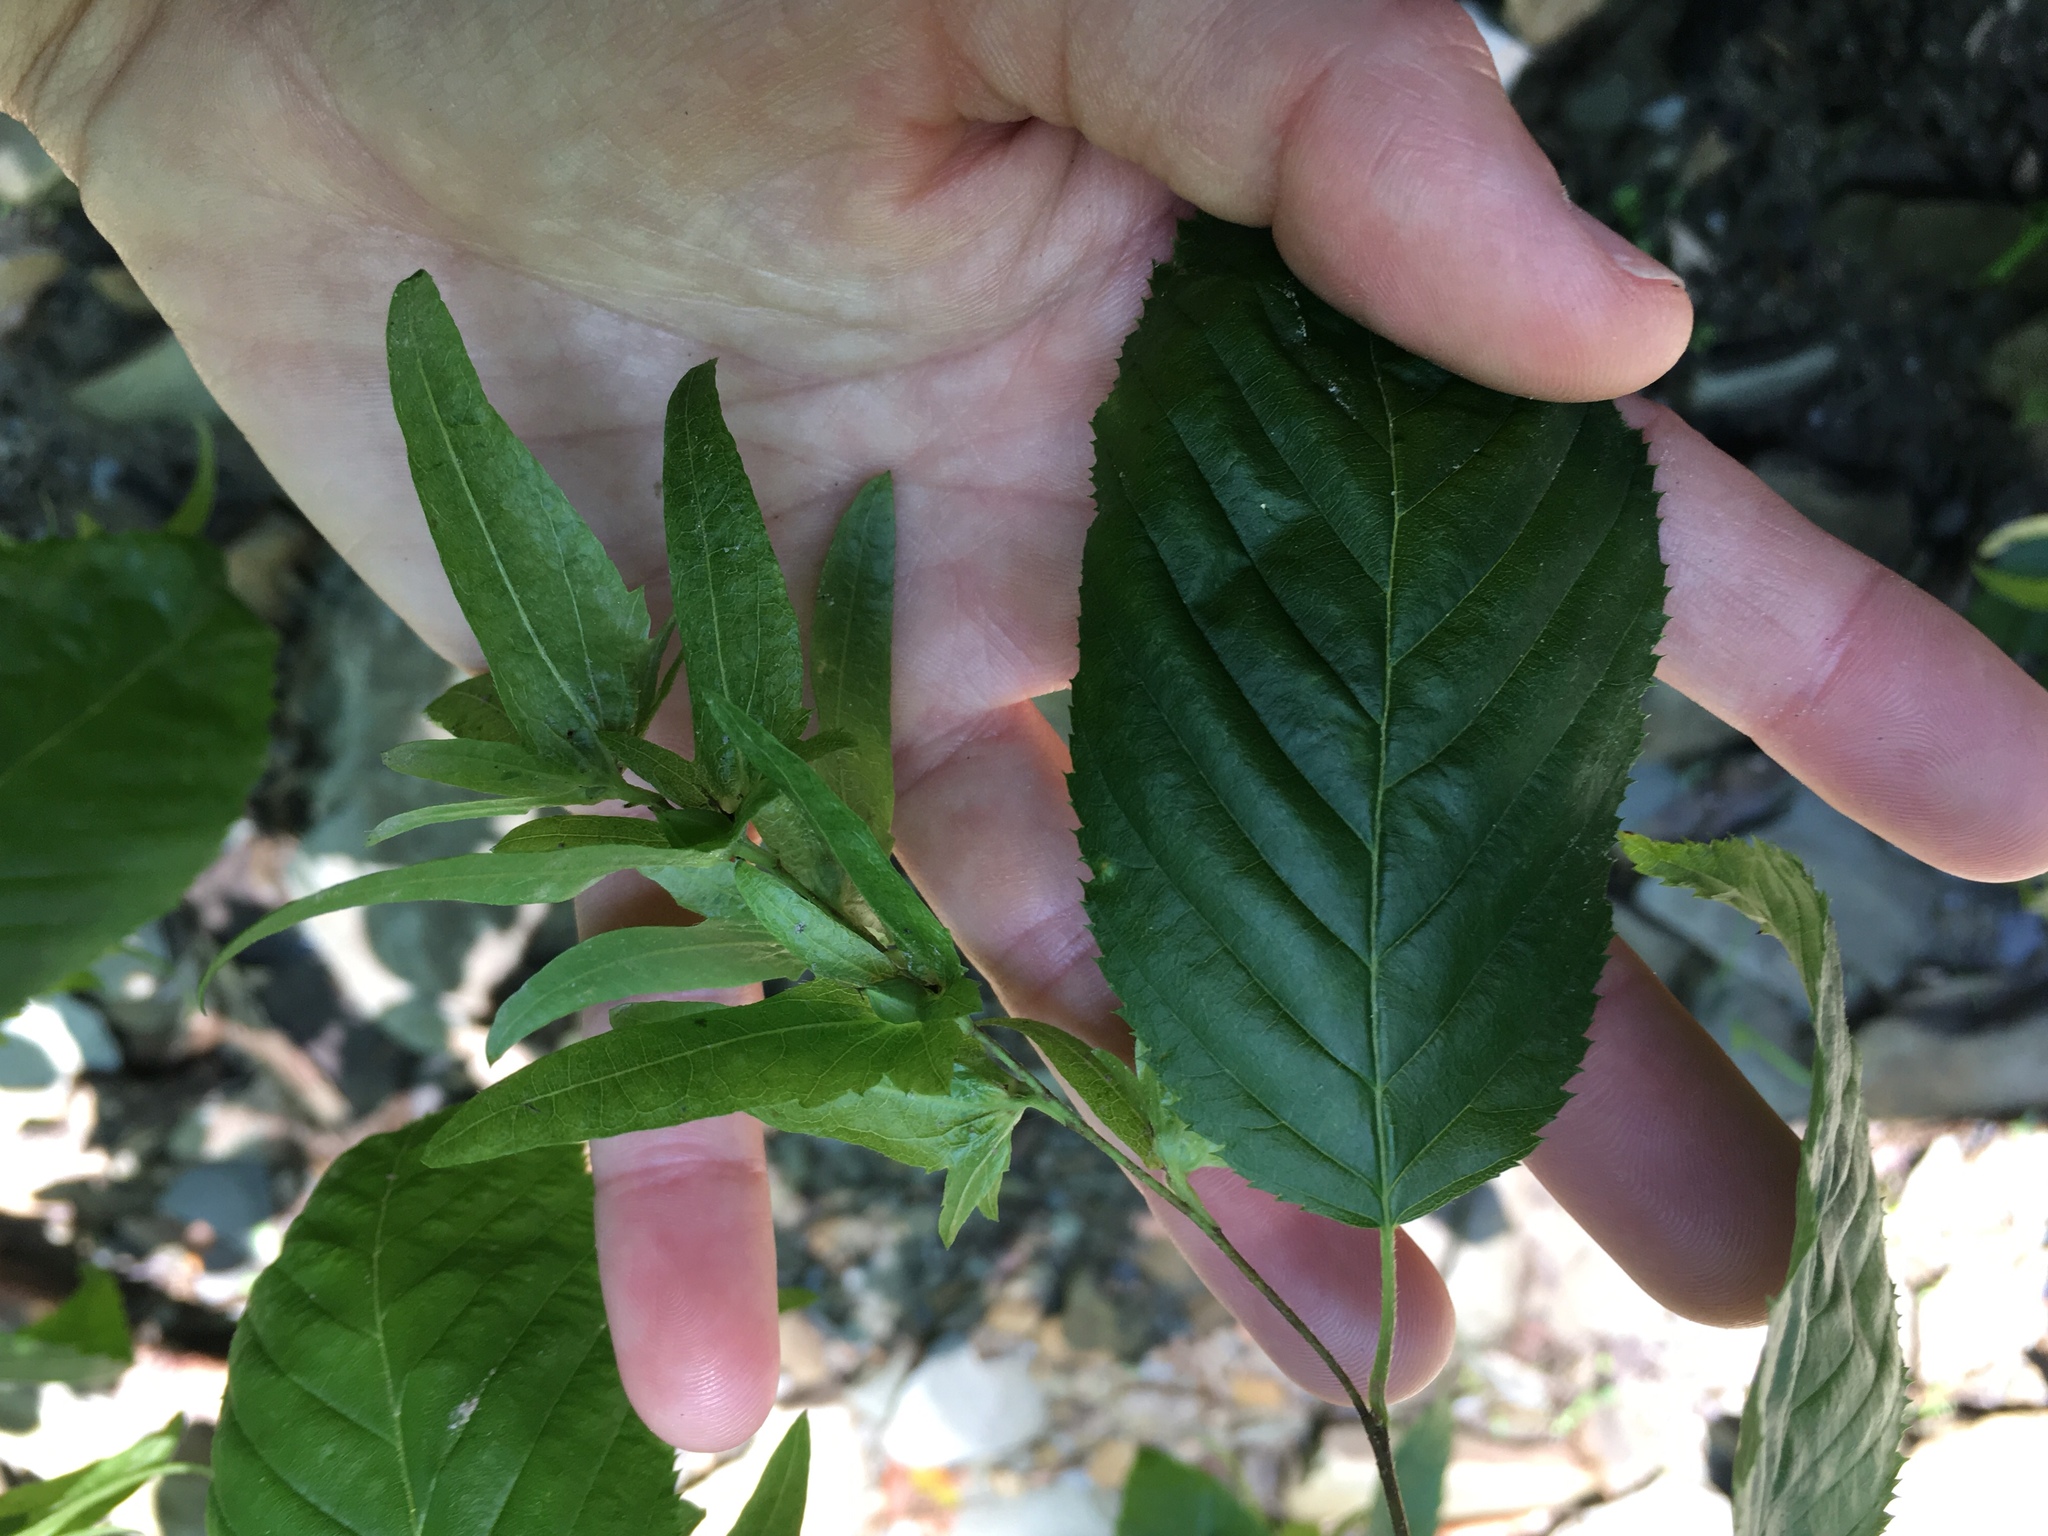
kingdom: Plantae
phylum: Tracheophyta
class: Magnoliopsida
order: Fagales
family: Betulaceae
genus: Carpinus
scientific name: Carpinus caroliniana
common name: American hornbeam
